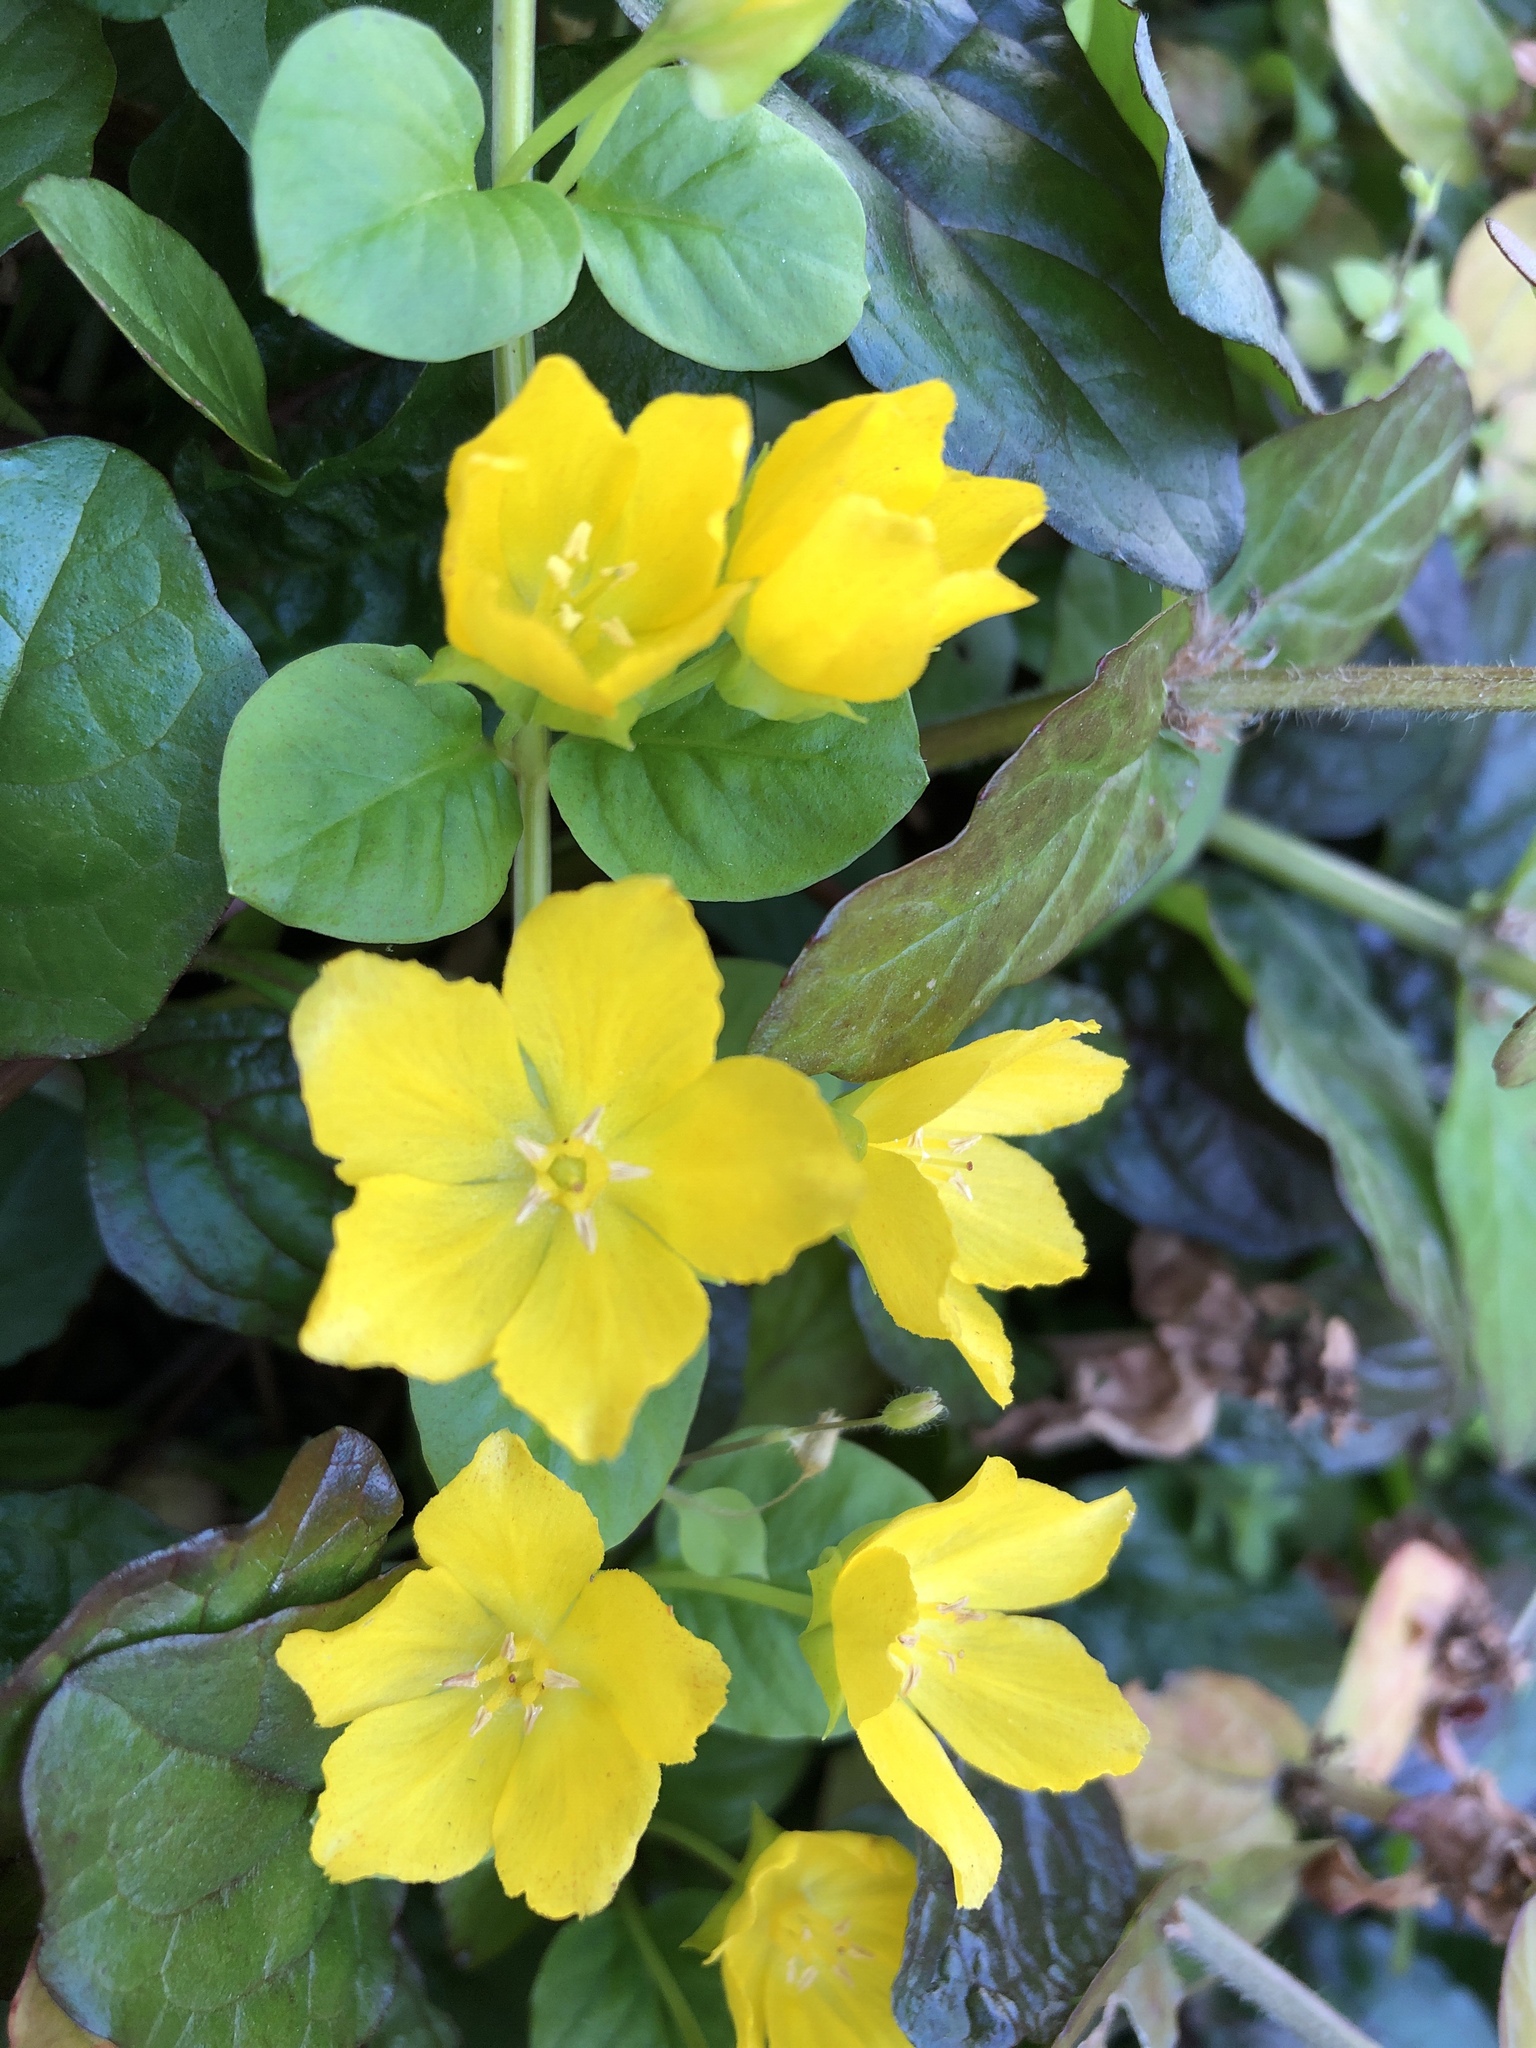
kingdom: Plantae
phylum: Tracheophyta
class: Magnoliopsida
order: Ericales
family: Primulaceae
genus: Lysimachia
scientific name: Lysimachia nummularia
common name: Moneywort
